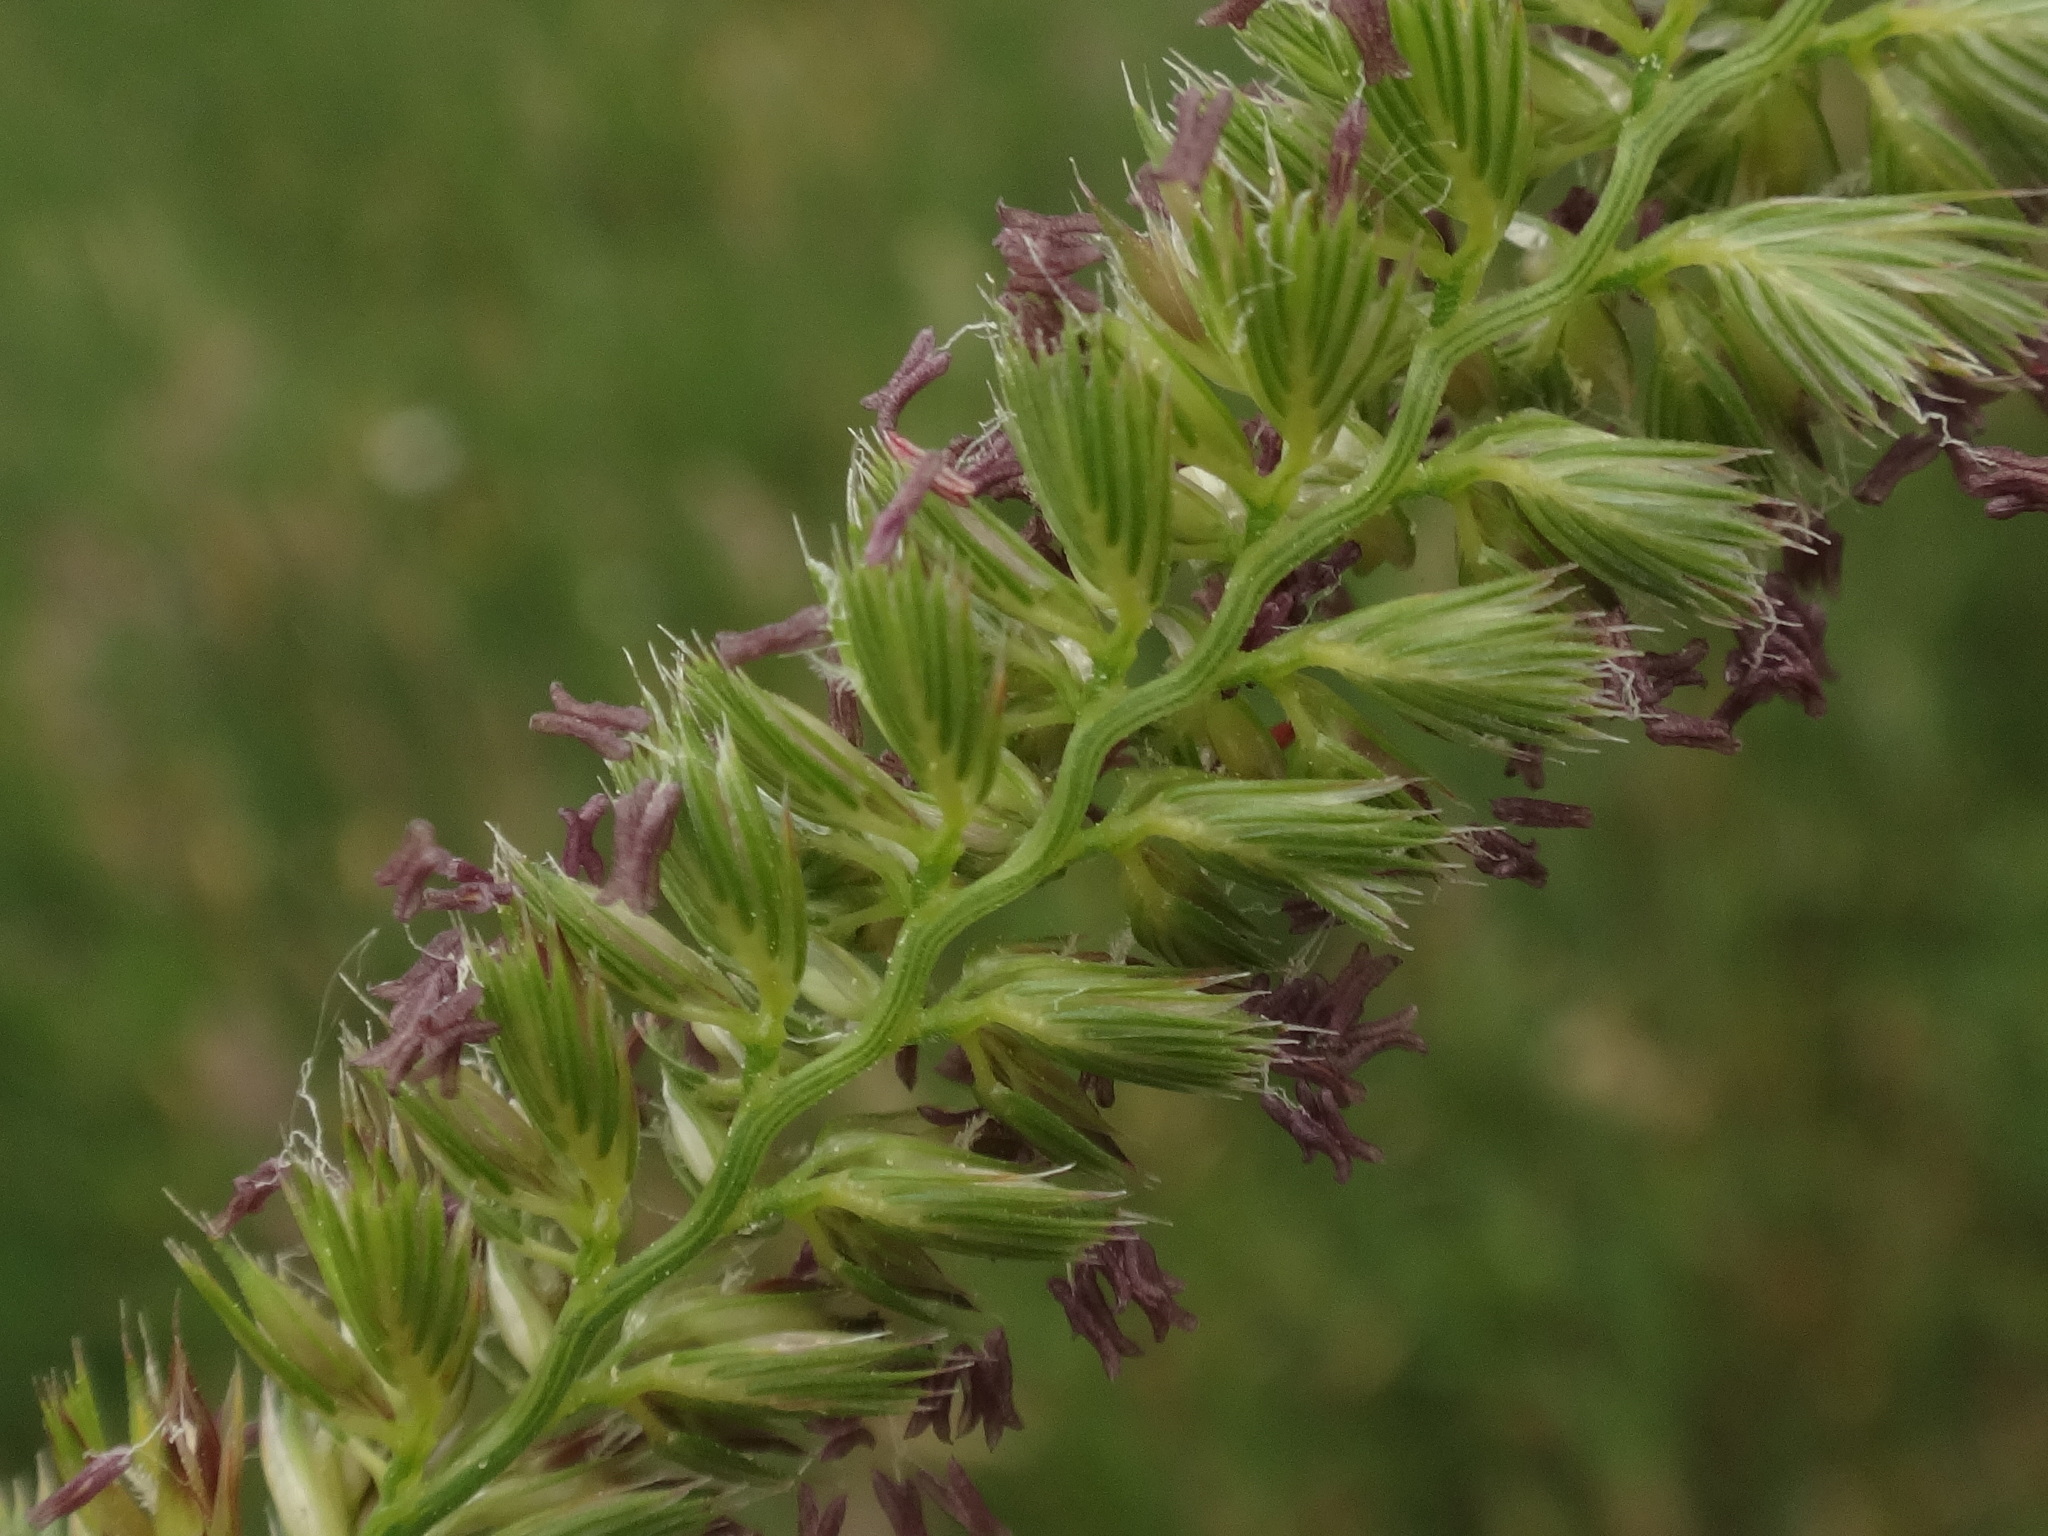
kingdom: Plantae
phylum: Tracheophyta
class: Liliopsida
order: Poales
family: Poaceae
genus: Cynosurus
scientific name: Cynosurus cristatus
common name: Crested dog's-tail
